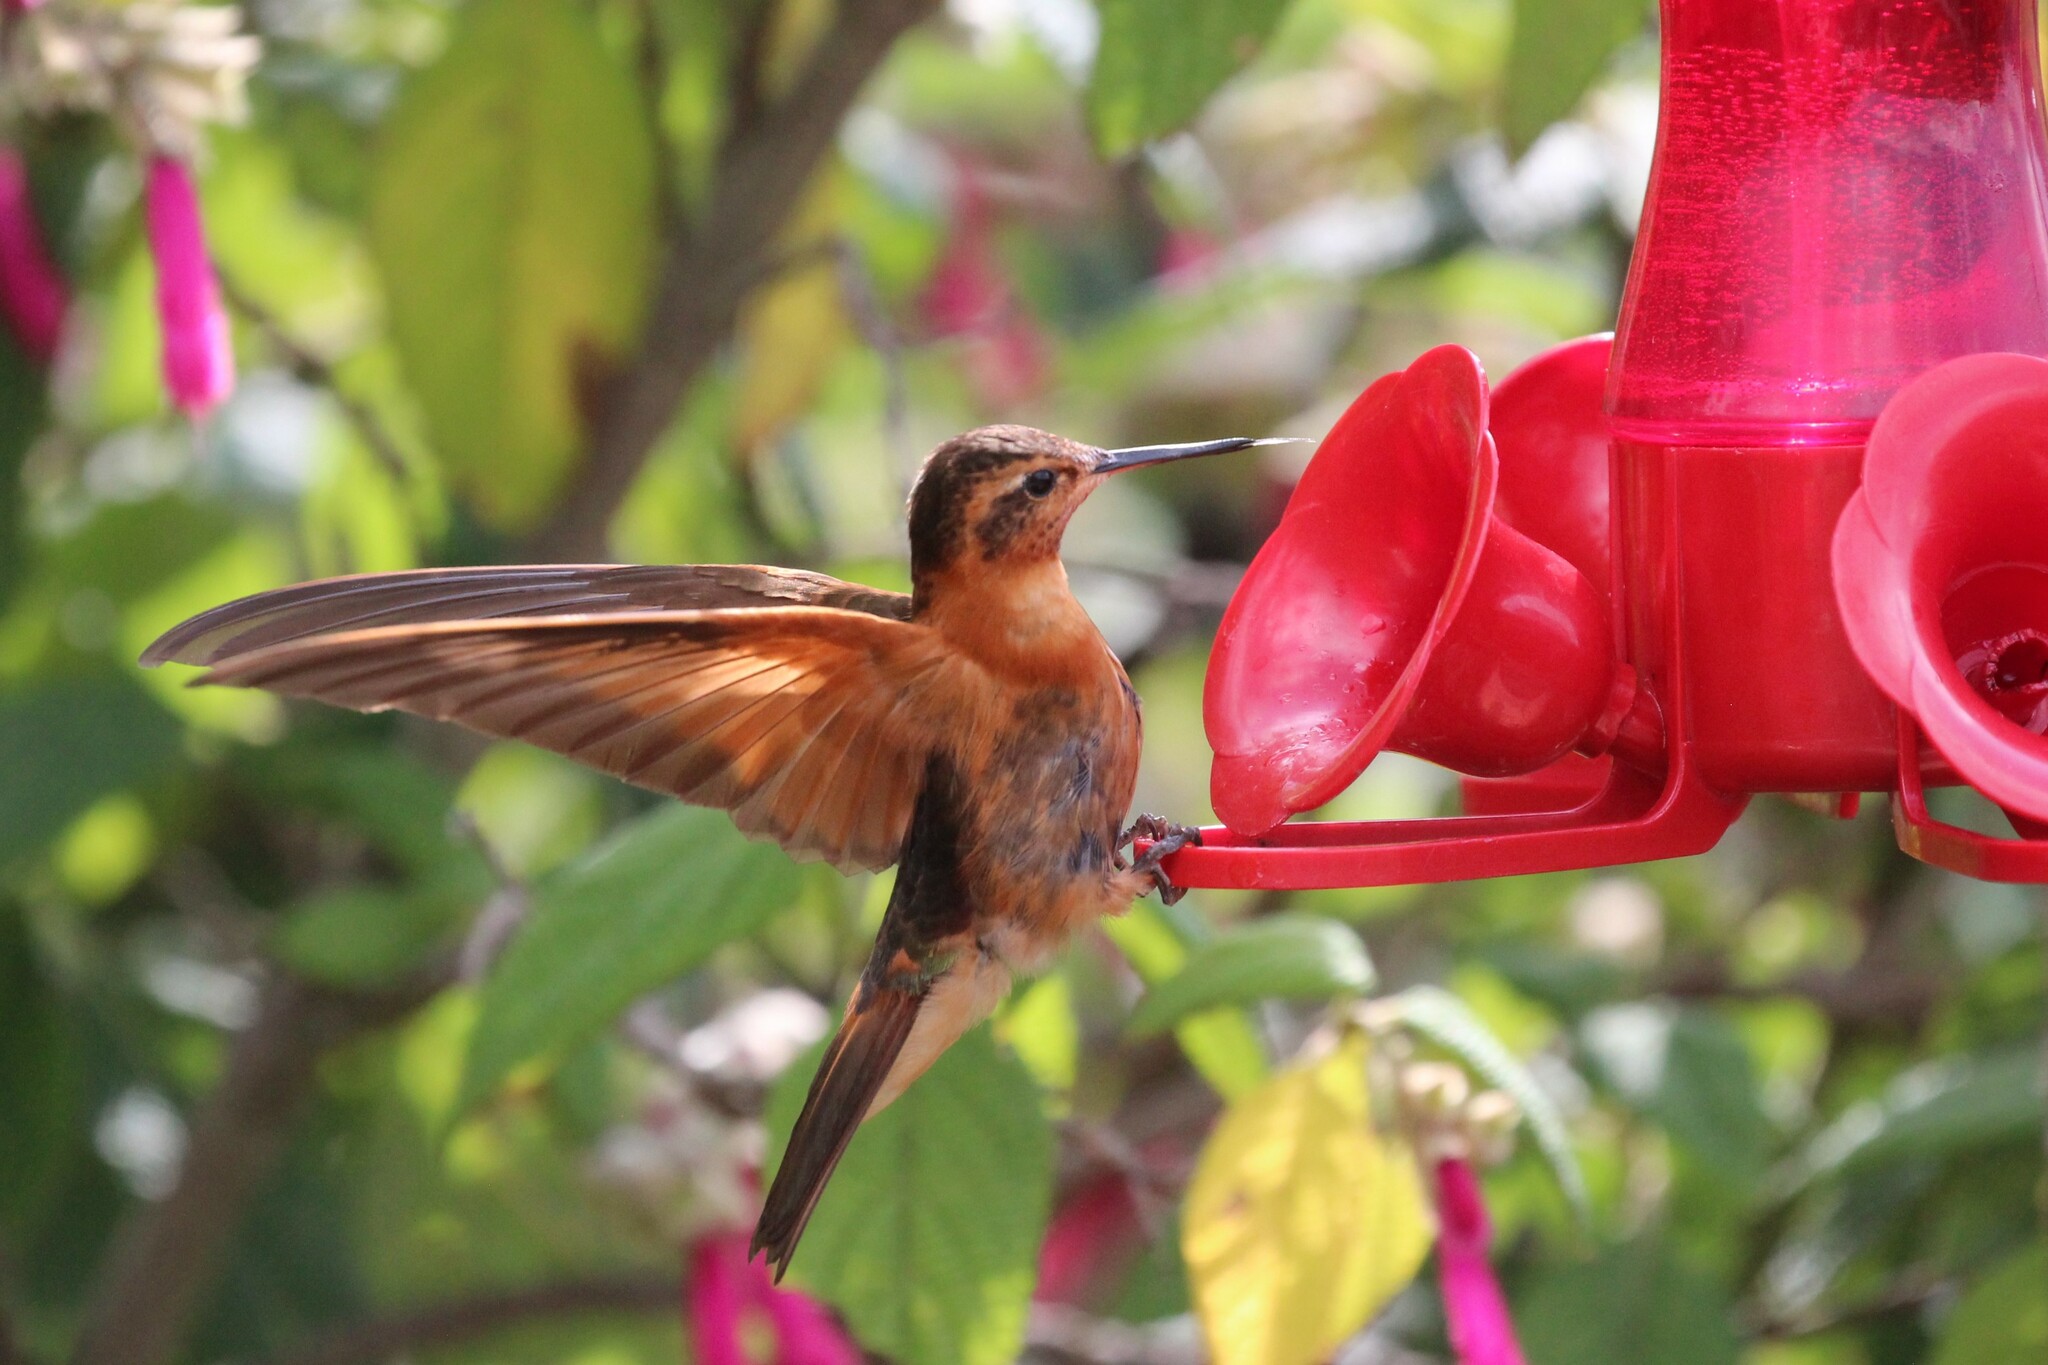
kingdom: Animalia
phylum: Chordata
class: Aves
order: Apodiformes
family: Trochilidae
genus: Aglaeactis
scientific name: Aglaeactis cupripennis
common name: Shining sunbeam
